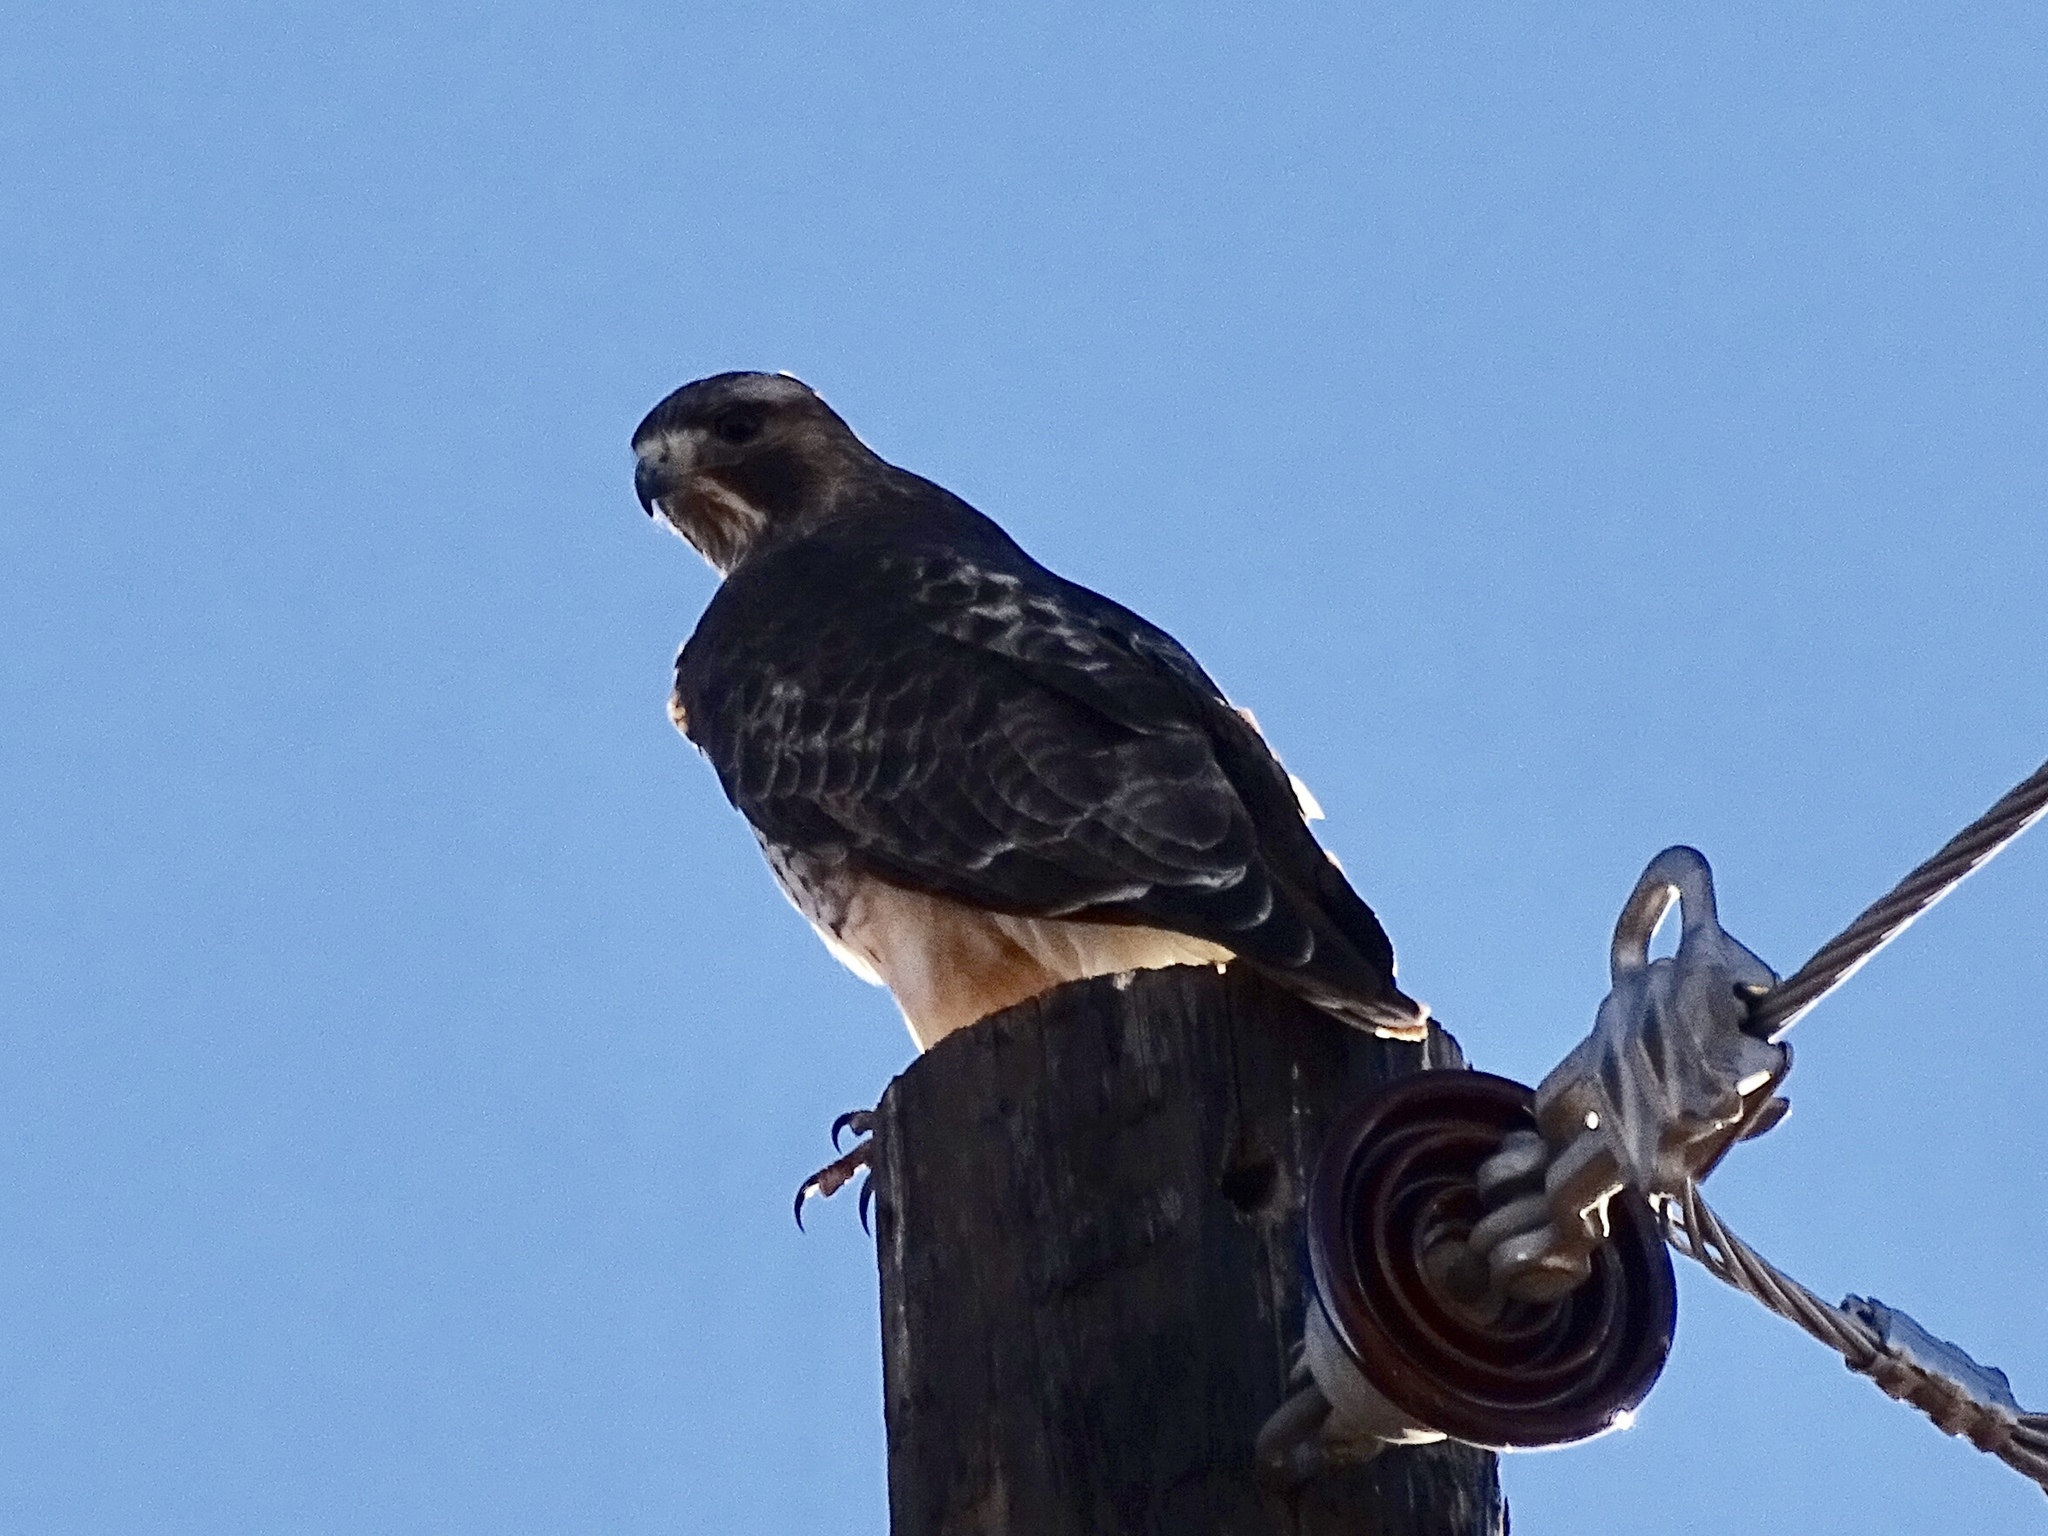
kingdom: Animalia
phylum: Chordata
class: Aves
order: Accipitriformes
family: Accipitridae
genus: Buteo
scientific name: Buteo jamaicensis
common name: Red-tailed hawk
